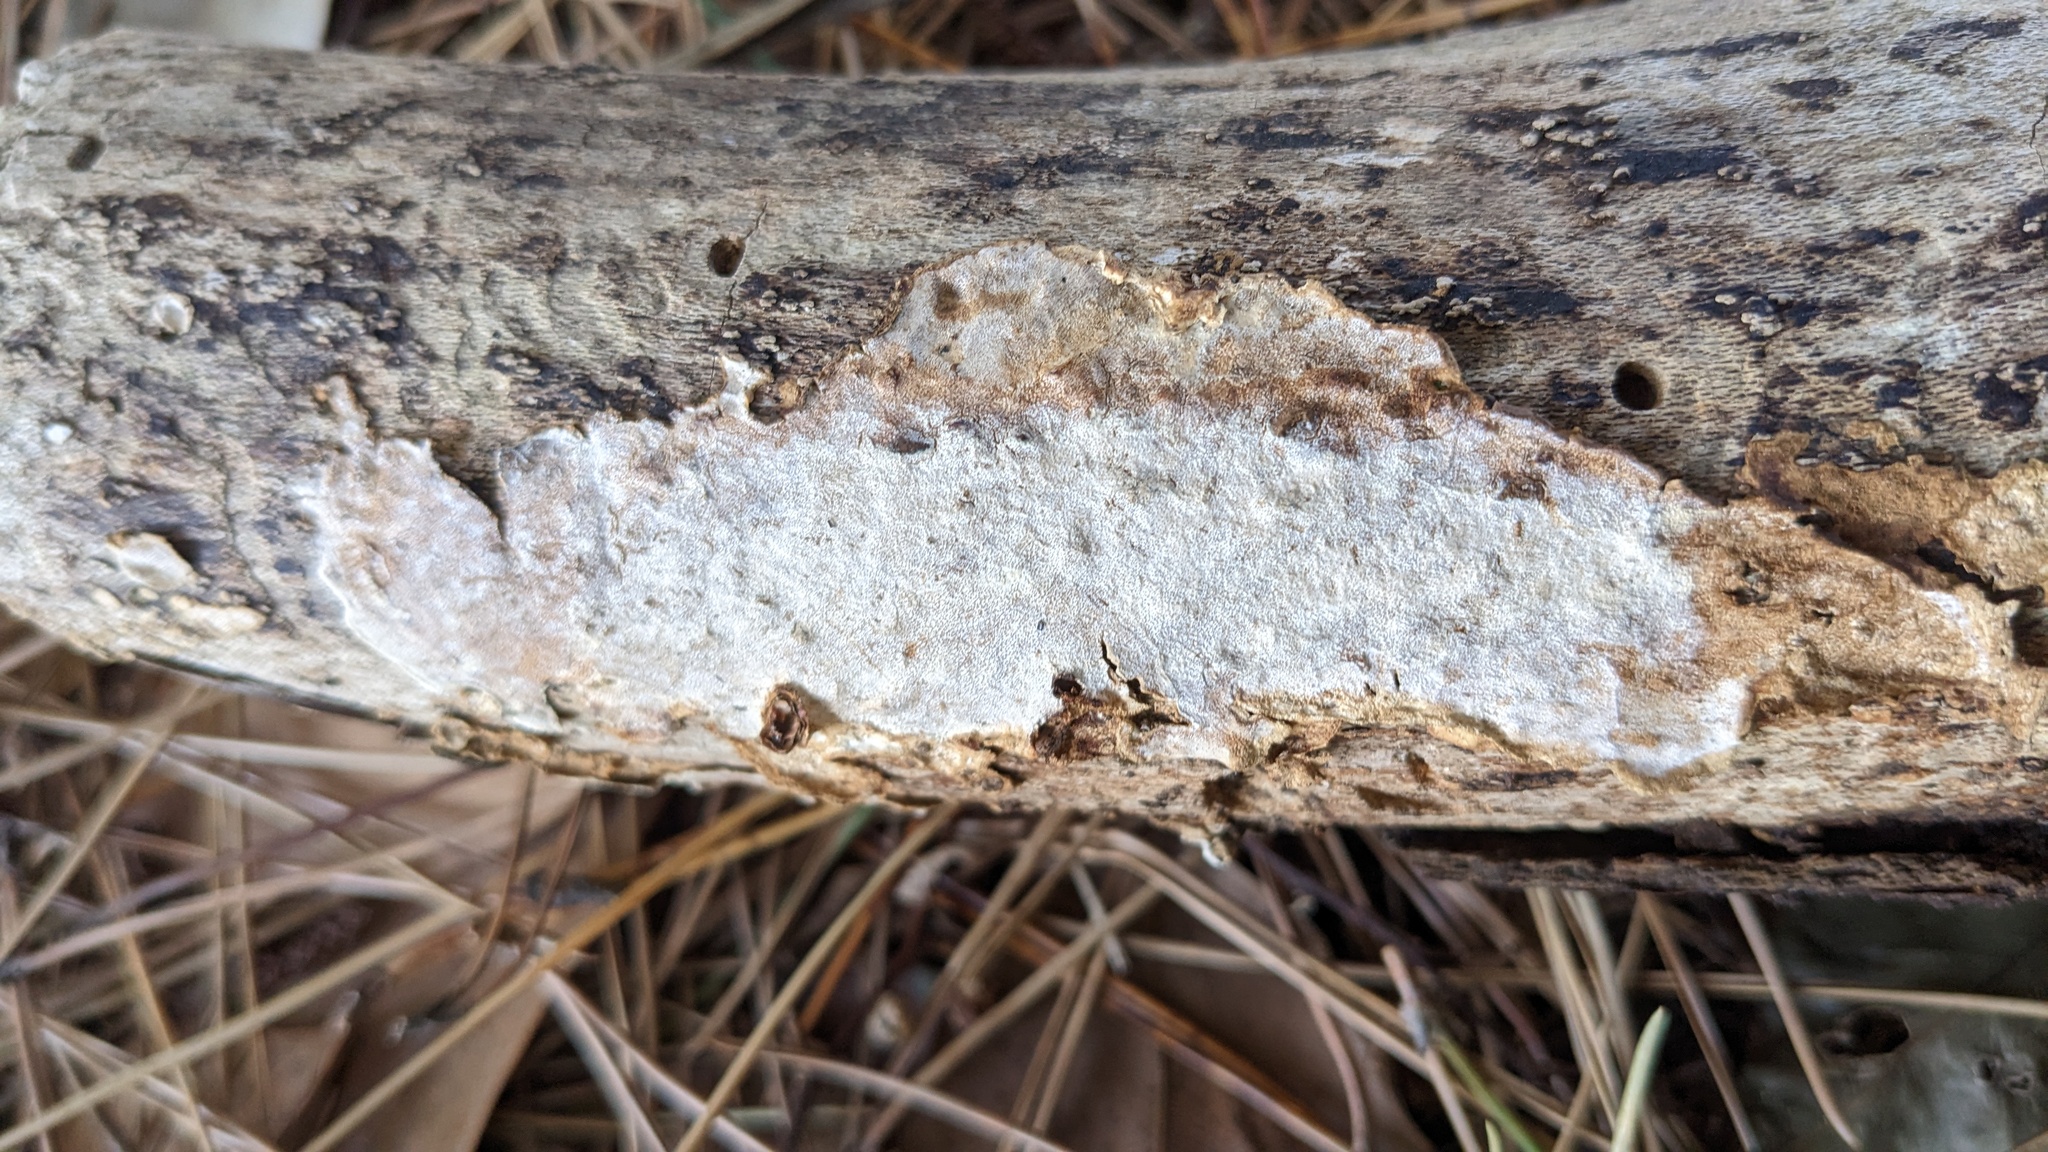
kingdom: Fungi
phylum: Basidiomycota
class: Agaricomycetes
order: Auriculariales
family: Auriculariaceae
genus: Heterochaete
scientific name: Heterochaete delicata
